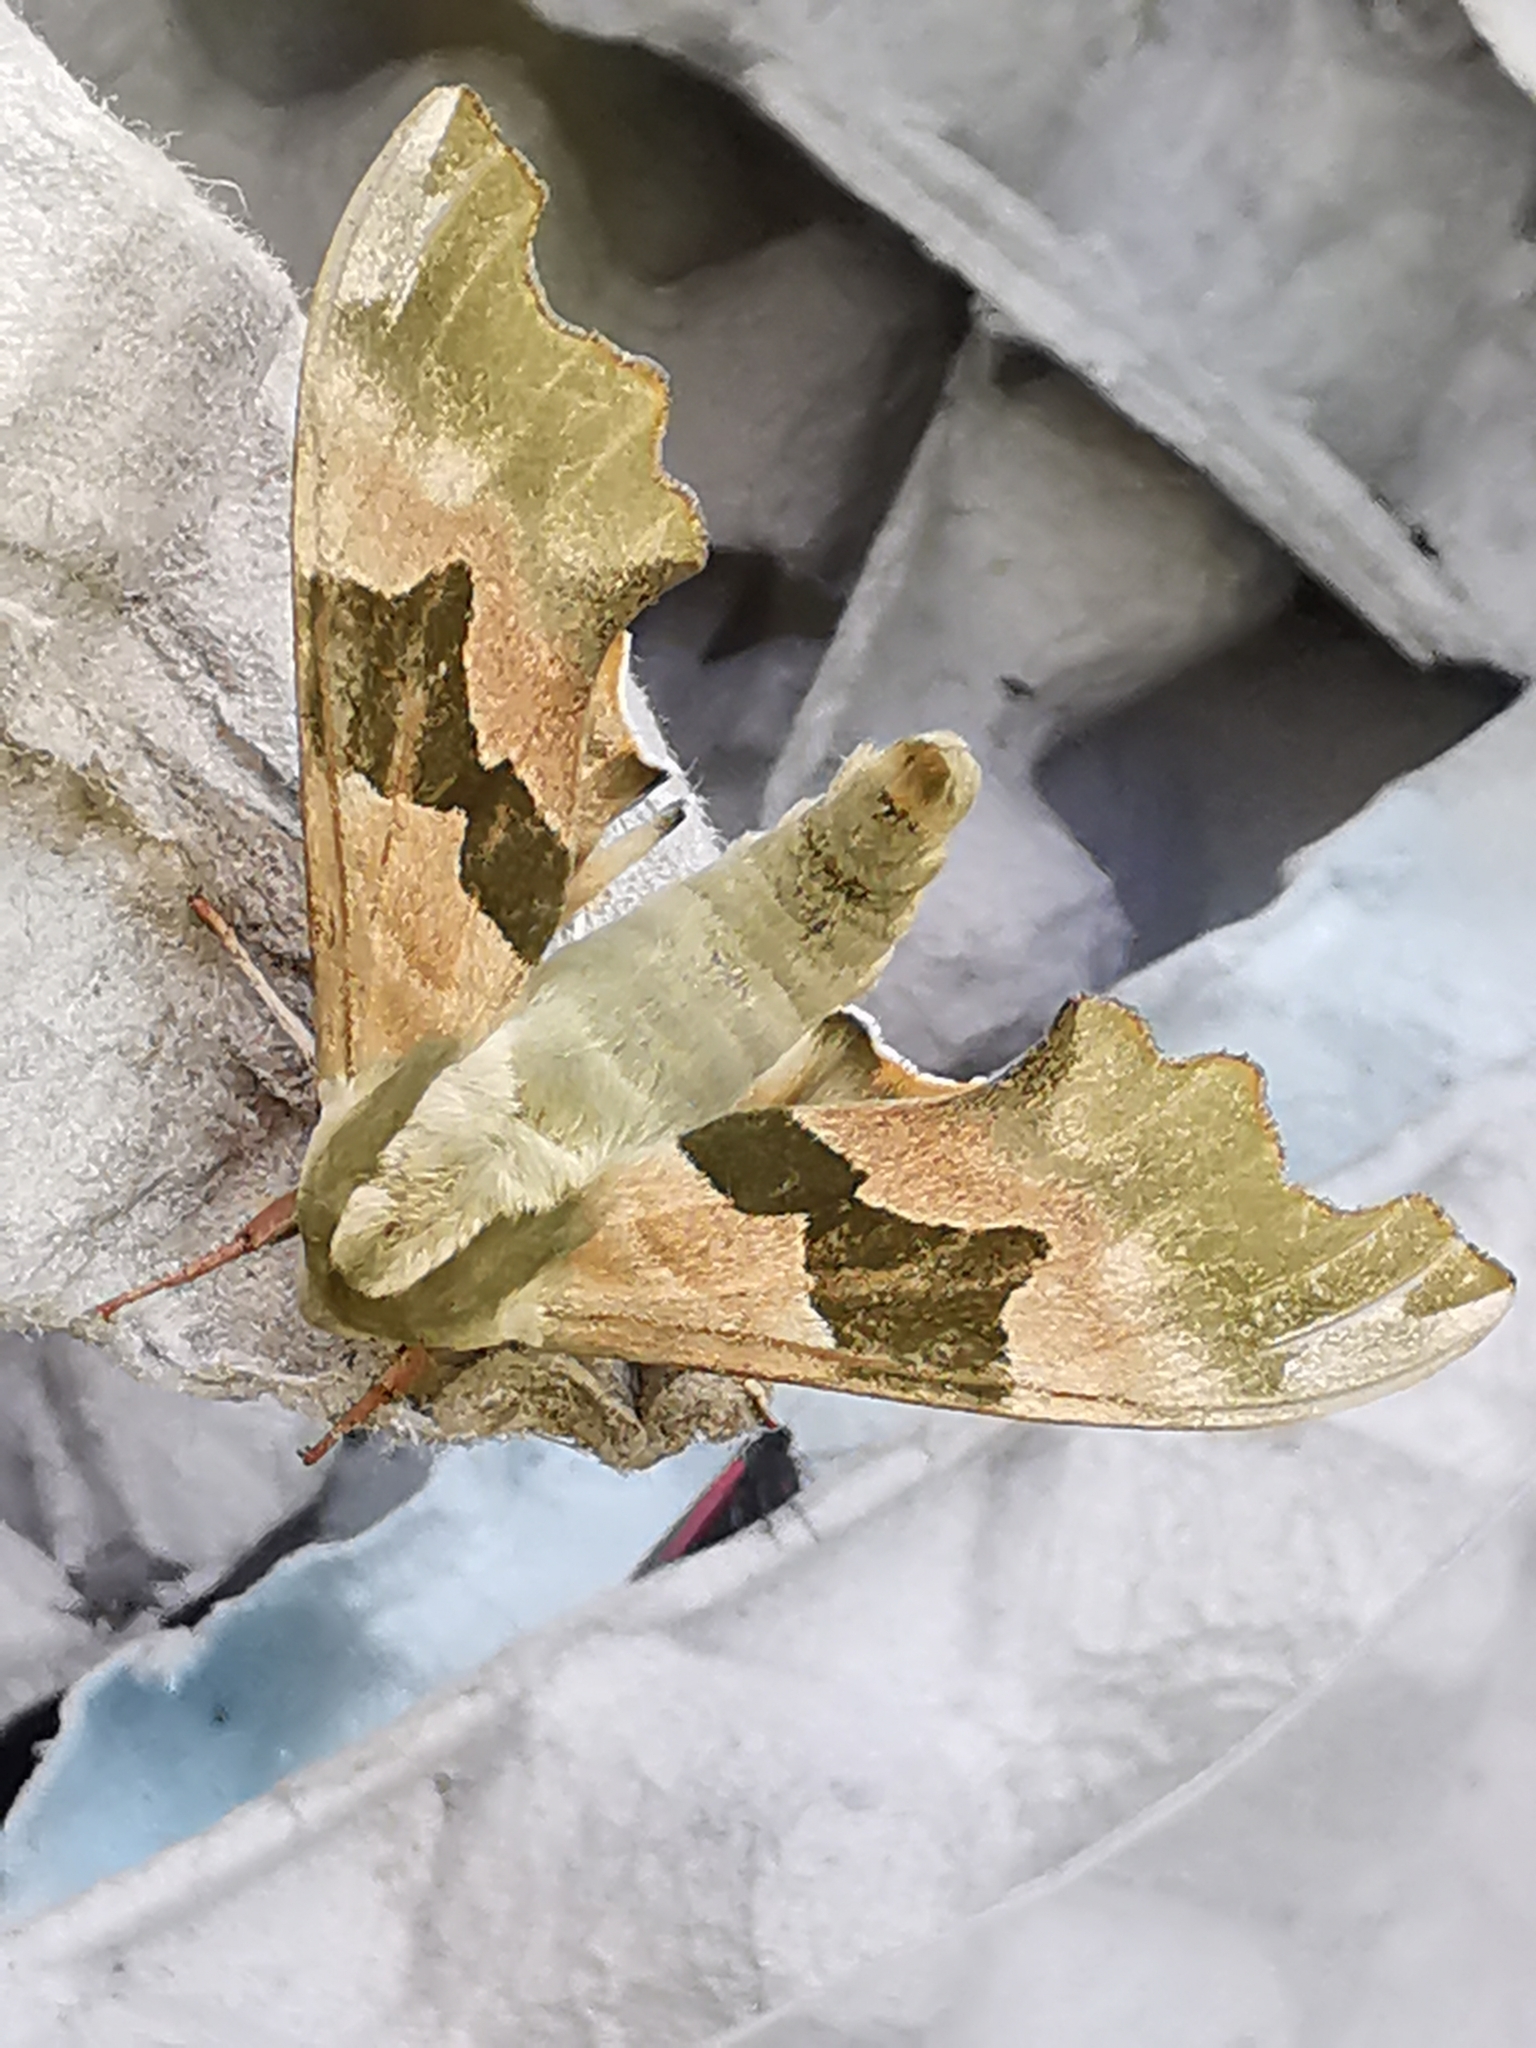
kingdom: Animalia
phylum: Arthropoda
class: Insecta
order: Lepidoptera
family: Sphingidae
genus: Mimas
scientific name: Mimas tiliae
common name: Lime hawk-moth
